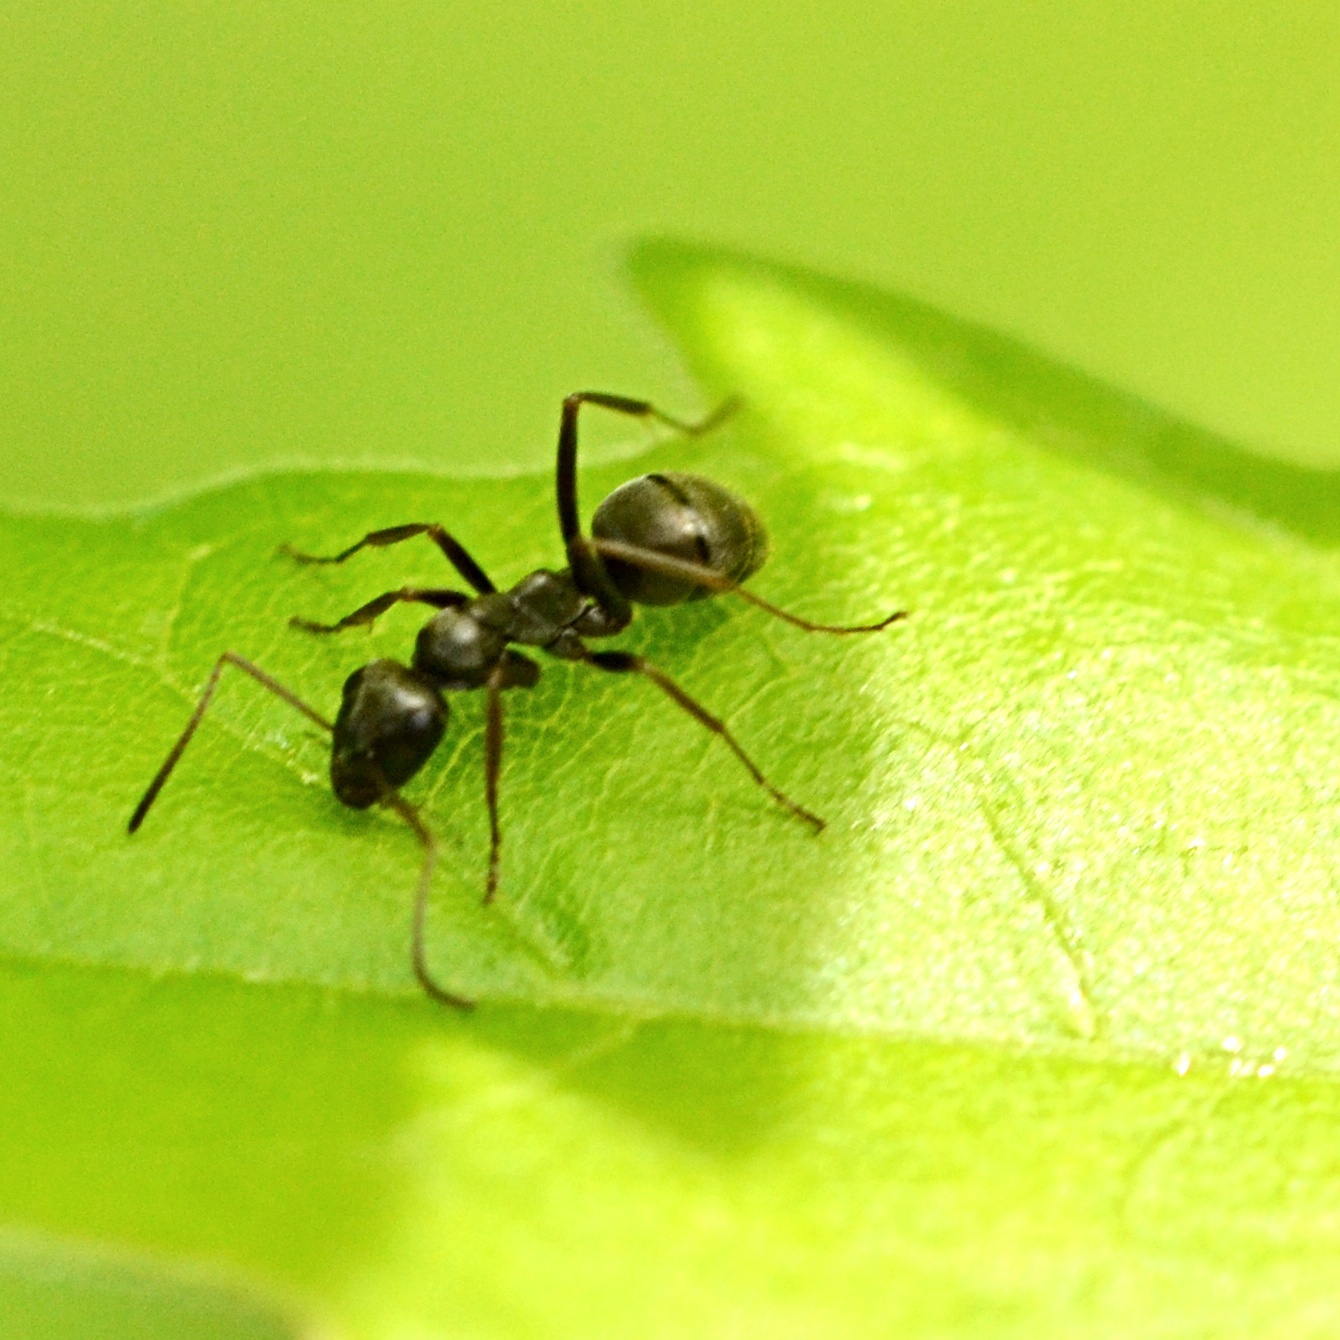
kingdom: Animalia
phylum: Arthropoda
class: Insecta
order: Hymenoptera
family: Formicidae
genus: Formica
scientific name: Formica fusca
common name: Silky ant
